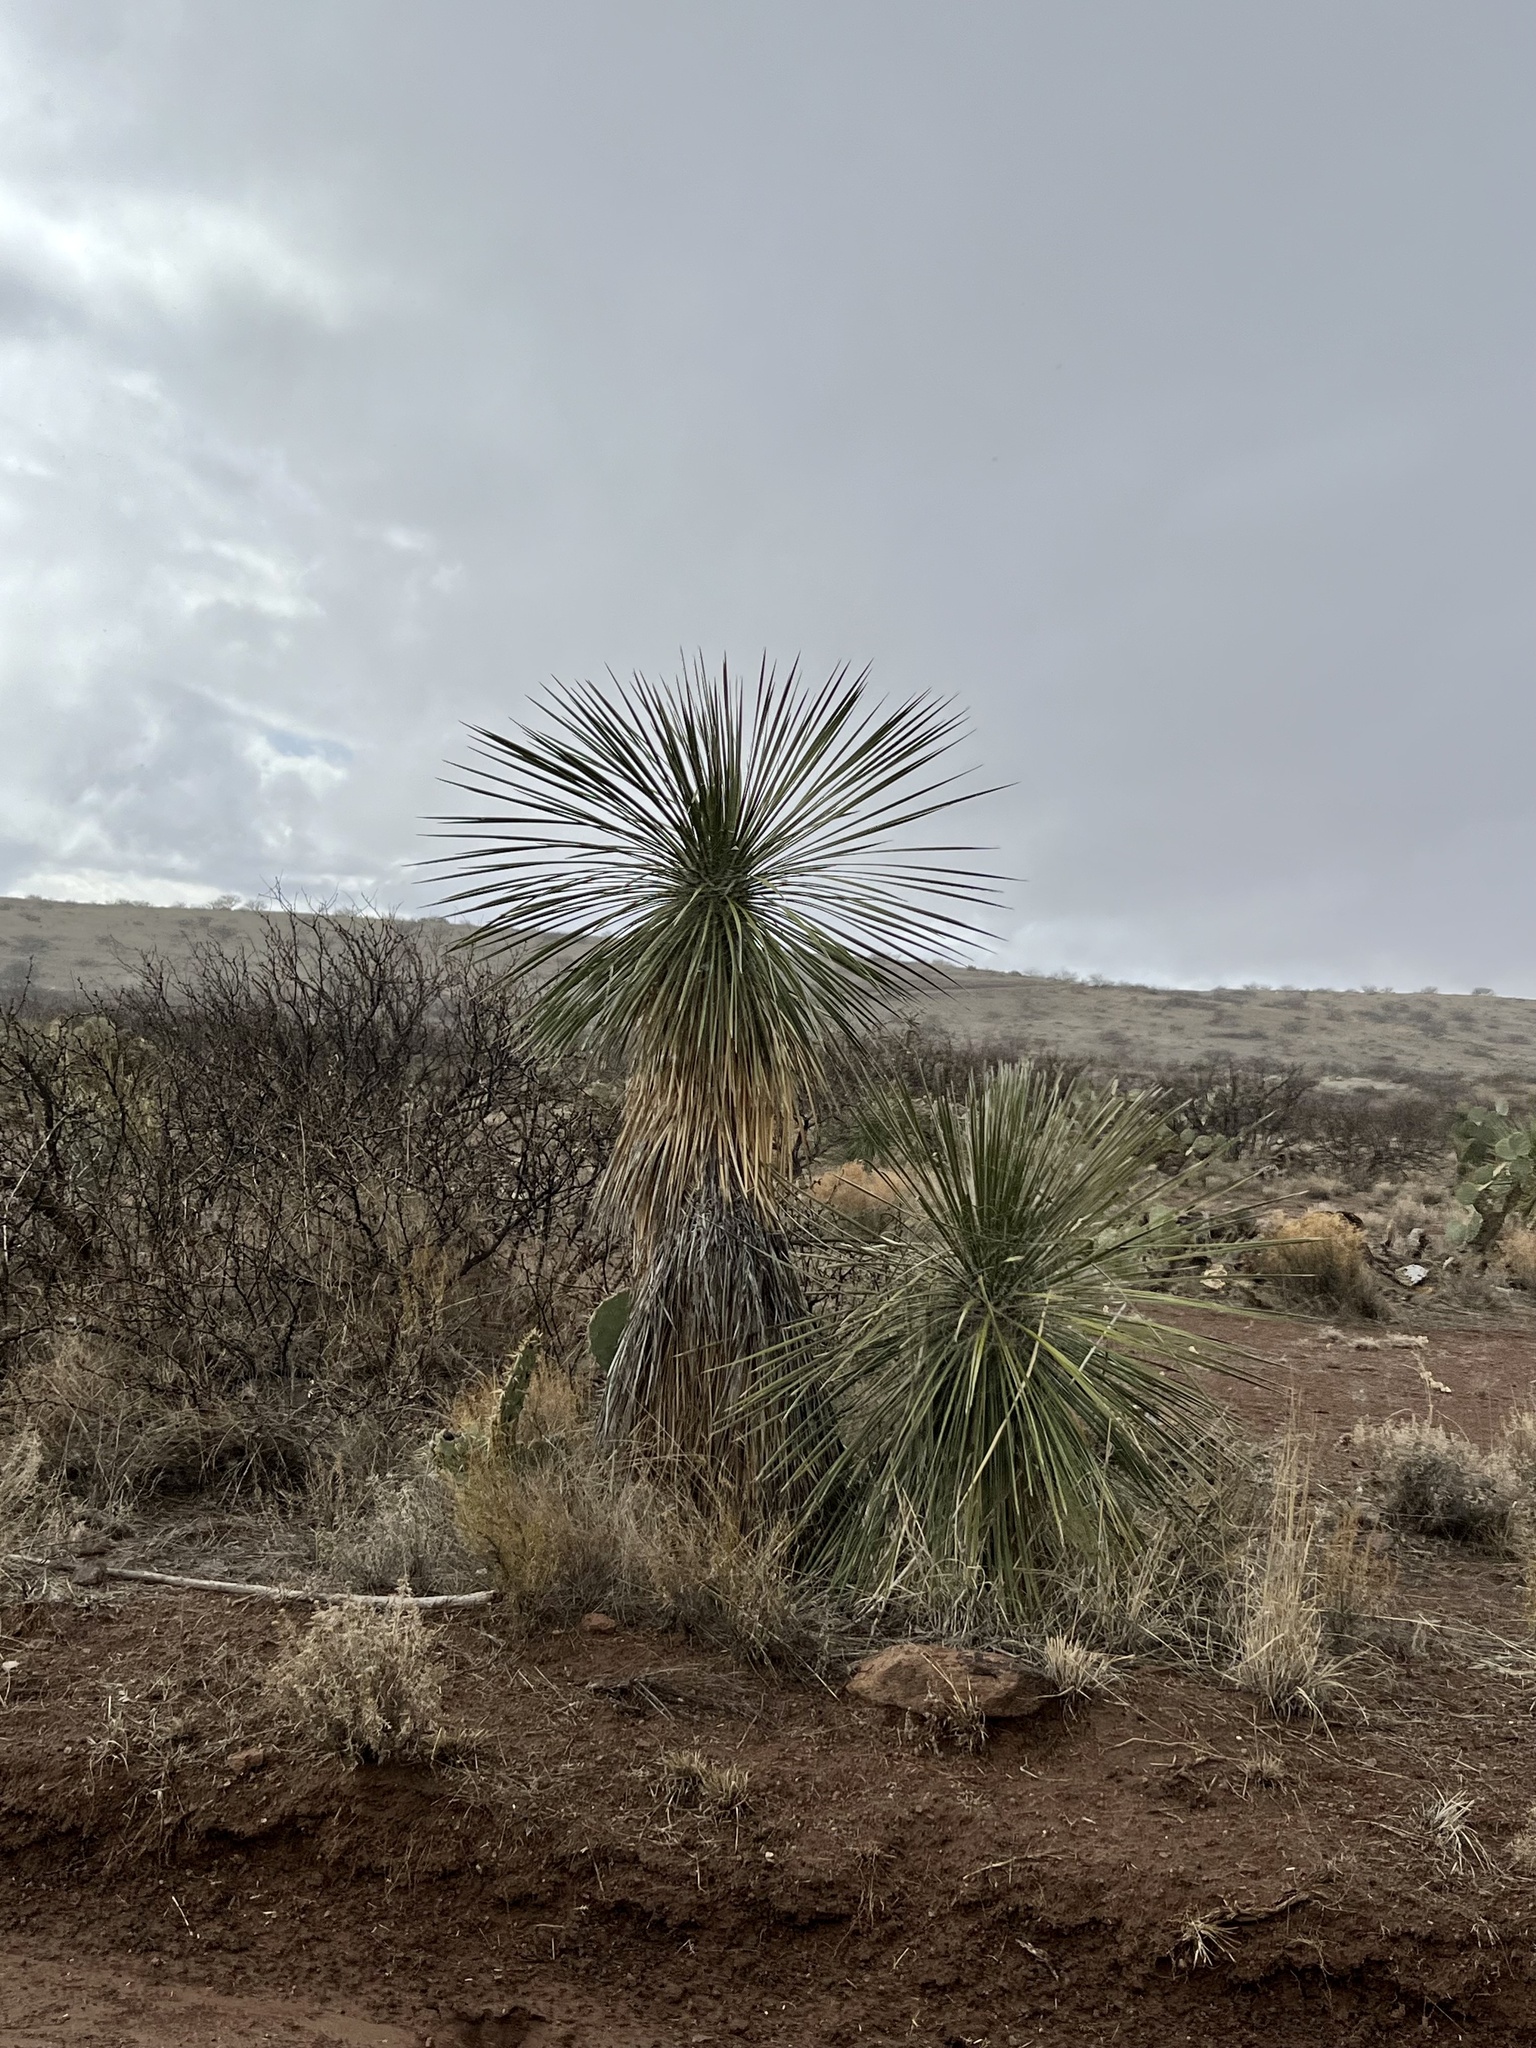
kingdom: Plantae
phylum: Tracheophyta
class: Liliopsida
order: Asparagales
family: Asparagaceae
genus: Yucca
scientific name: Yucca elata
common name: Palmella
